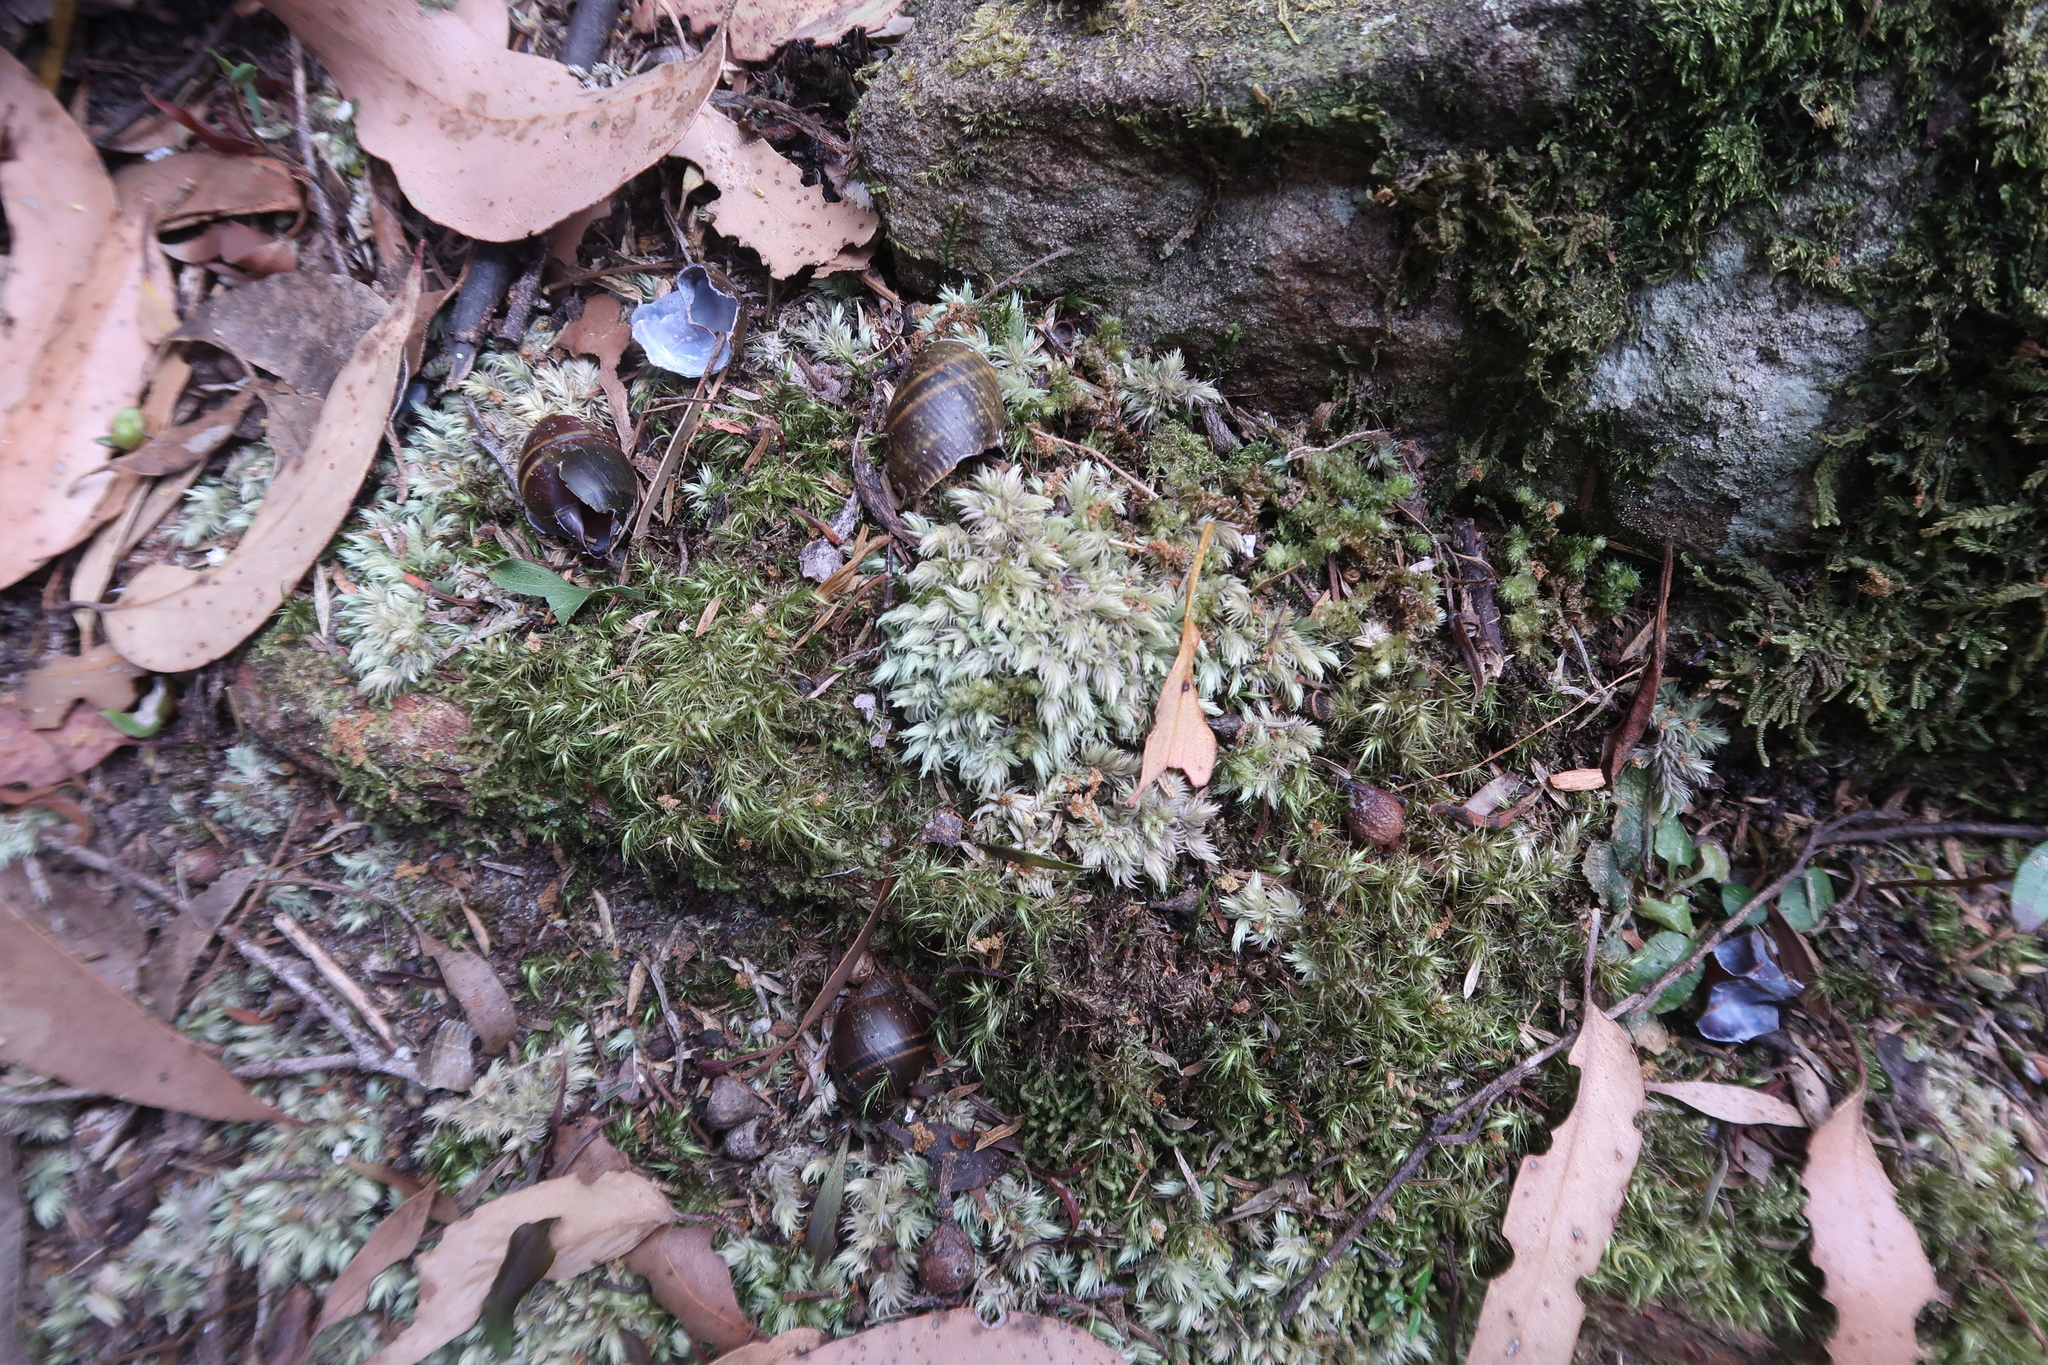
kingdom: Animalia
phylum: Mollusca
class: Gastropoda
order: Stylommatophora
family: Caryodidae
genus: Caryodes
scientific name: Caryodes dufresnii
